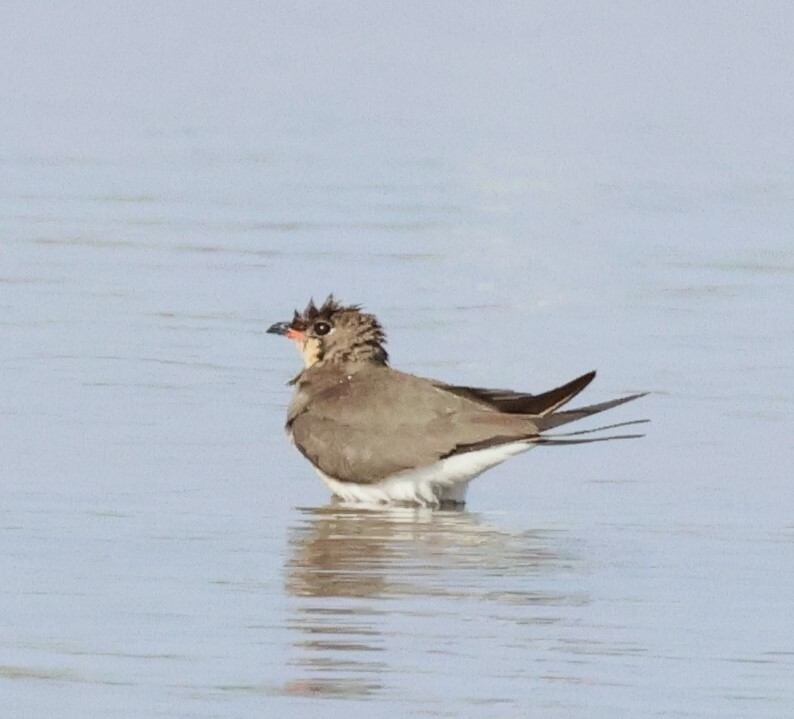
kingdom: Animalia
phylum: Chordata
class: Aves
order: Charadriiformes
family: Glareolidae
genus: Glareola
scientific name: Glareola pratincola
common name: Collared pratincole
